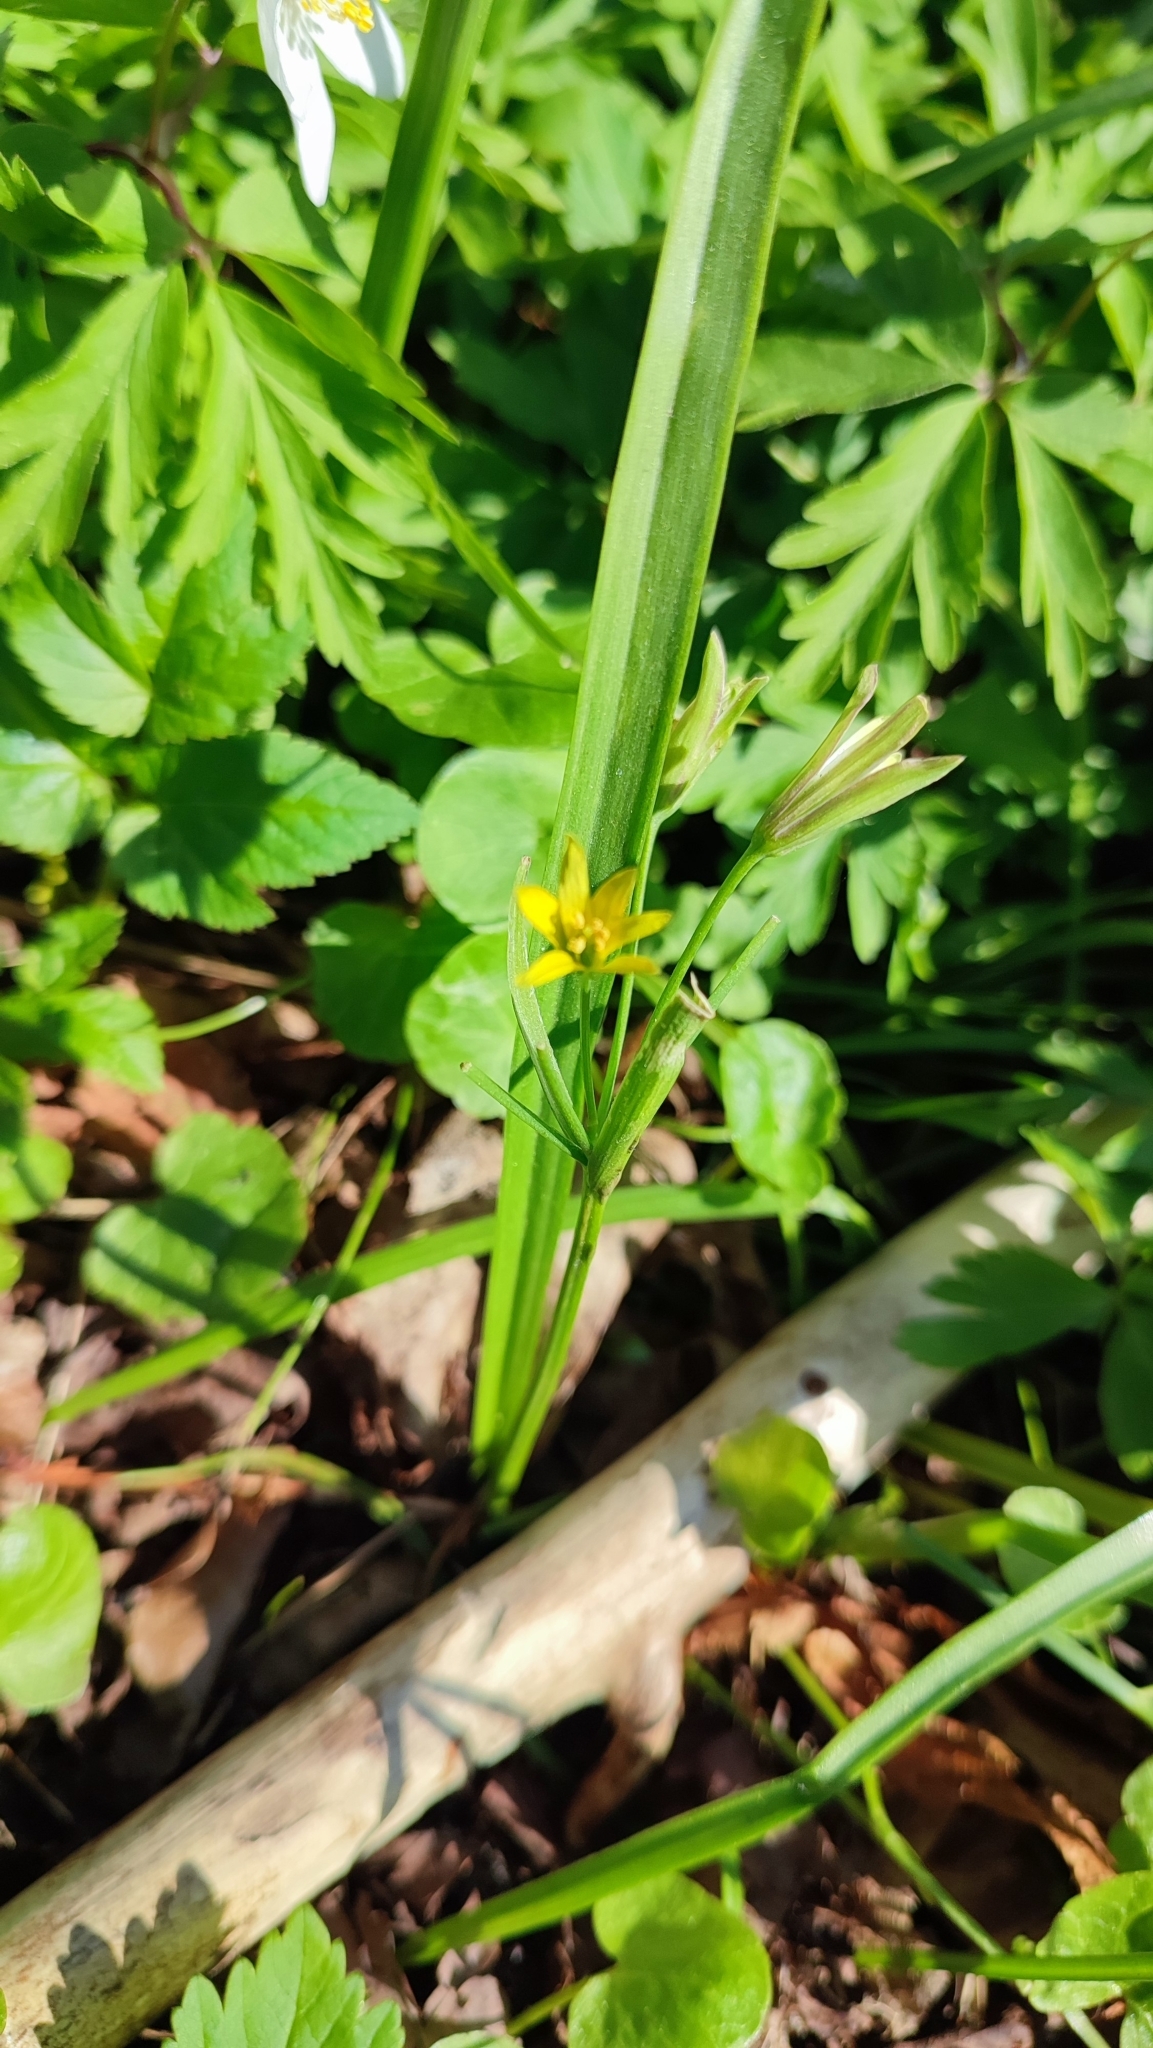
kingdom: Plantae
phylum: Tracheophyta
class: Liliopsida
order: Liliales
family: Liliaceae
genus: Gagea
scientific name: Gagea lutea
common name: Yellow star-of-bethlehem
